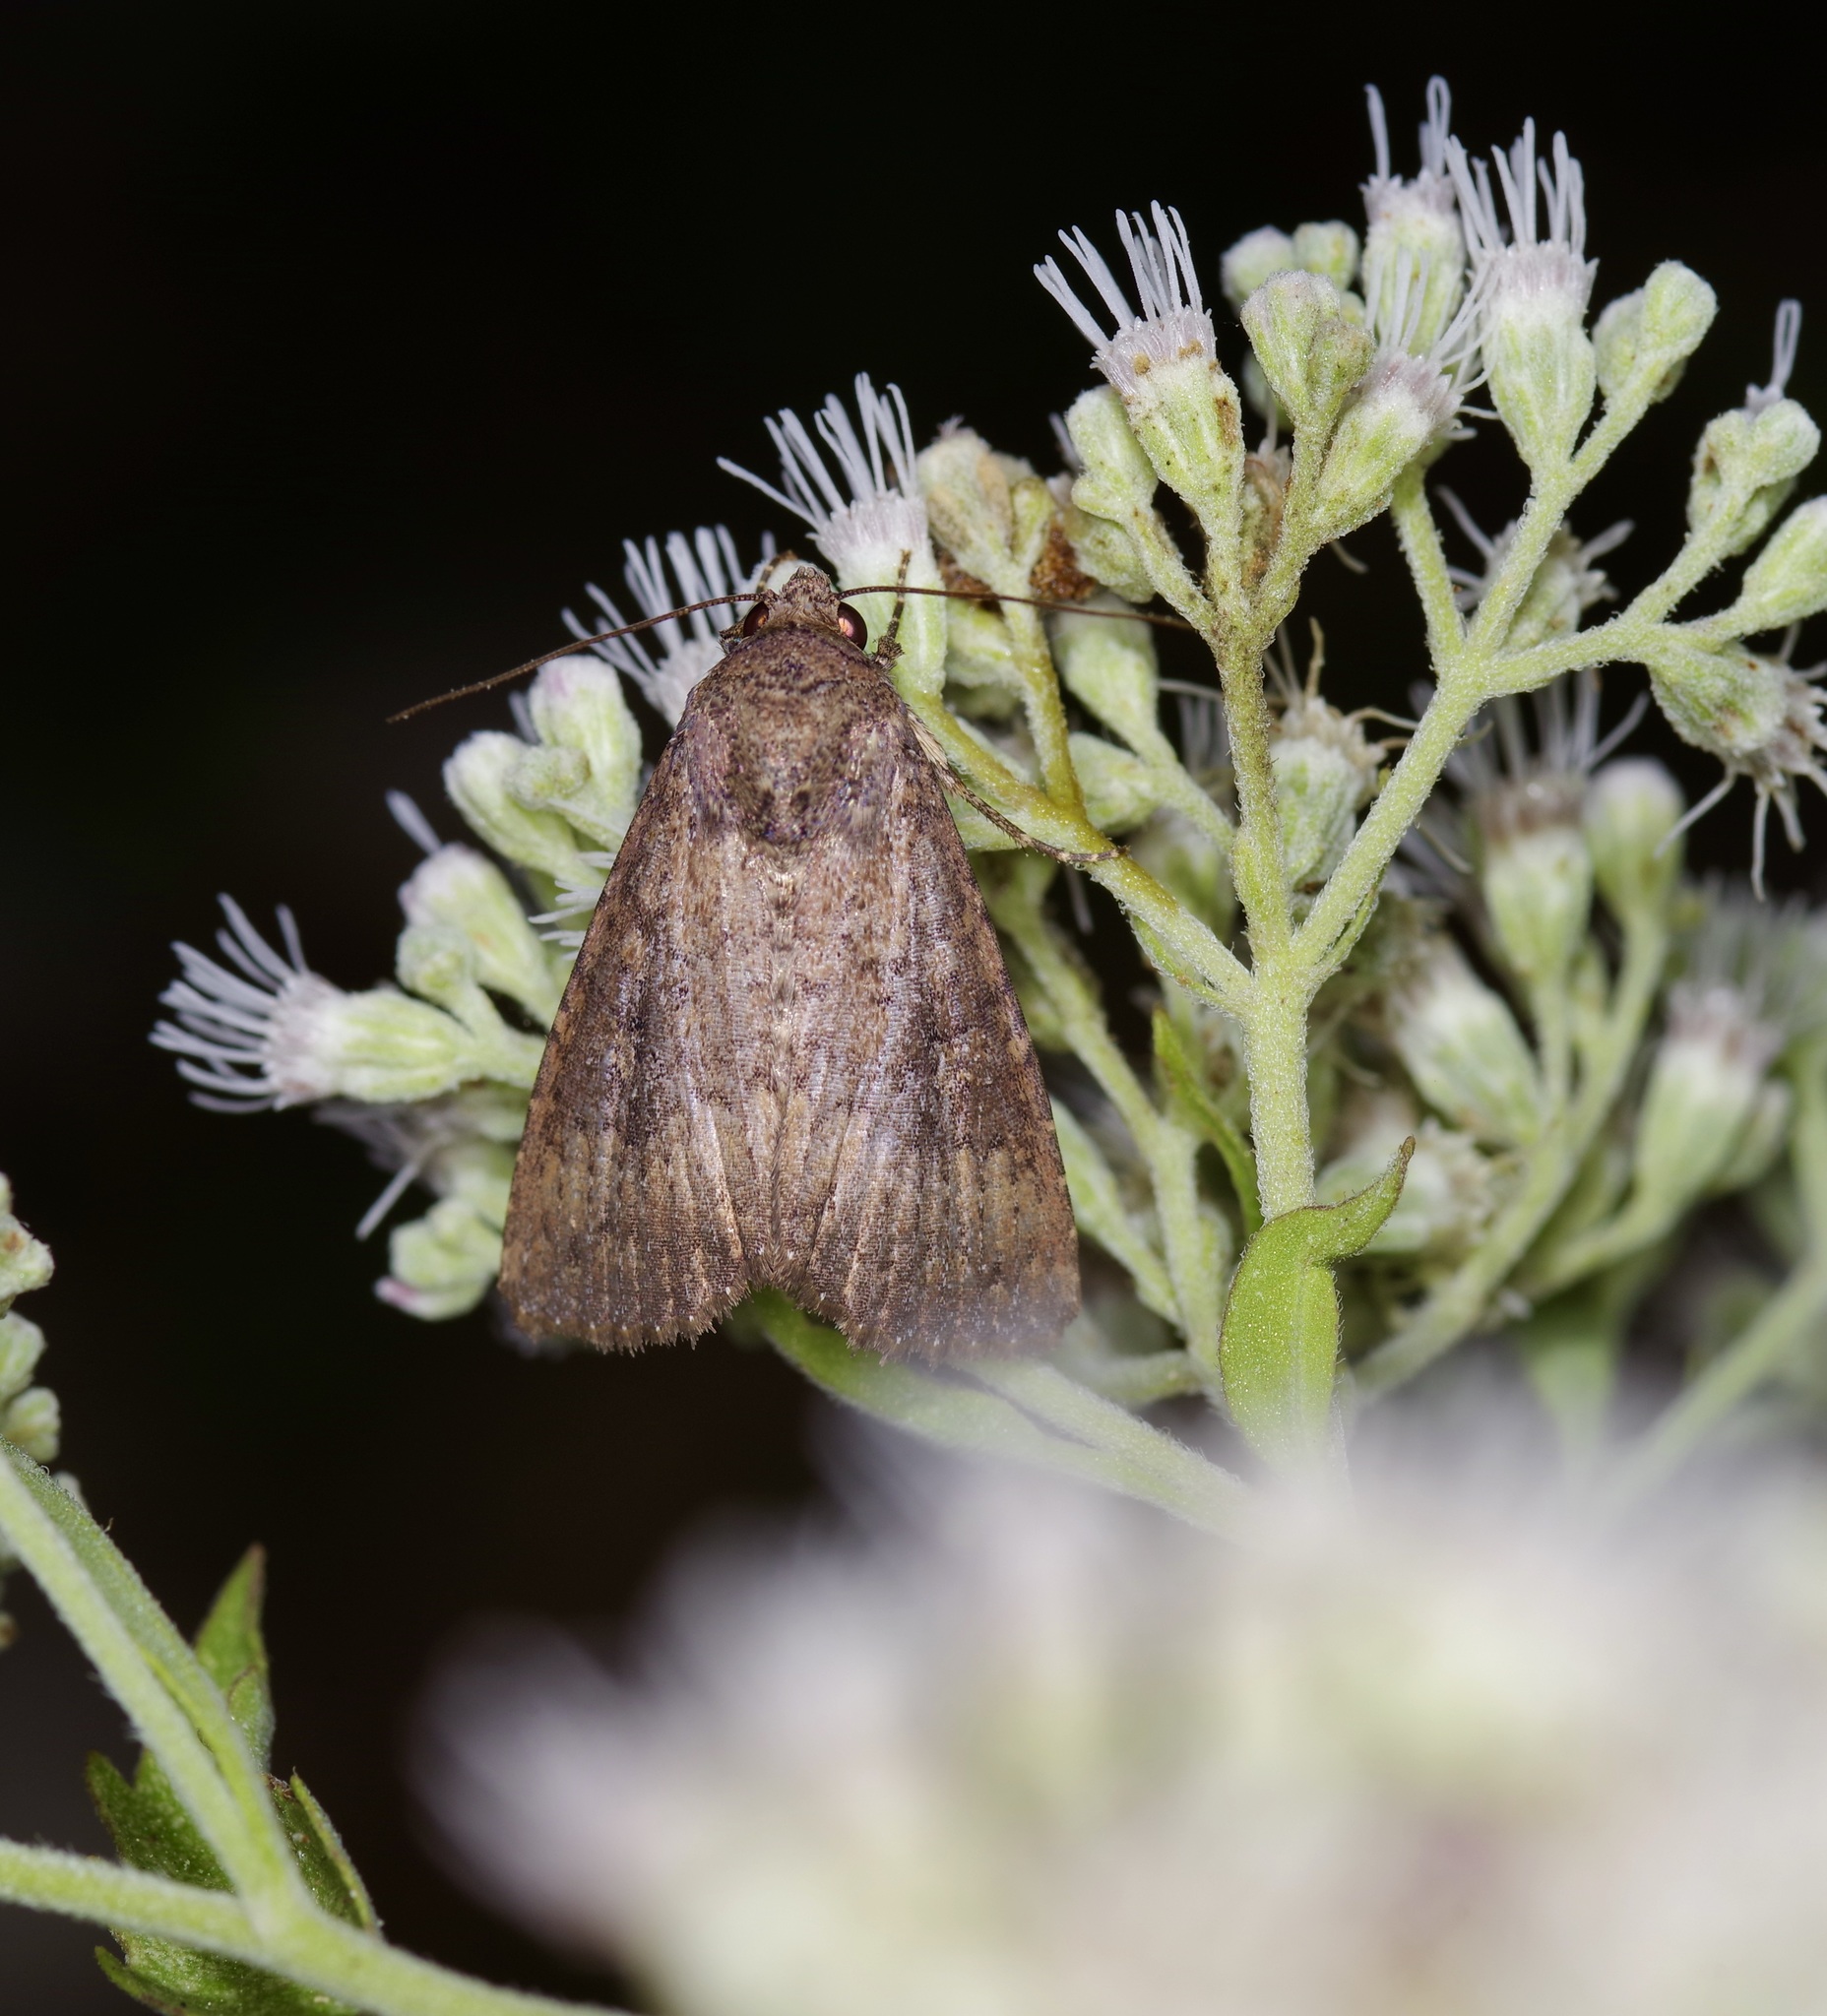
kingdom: Animalia
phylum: Arthropoda
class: Insecta
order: Lepidoptera
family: Noctuidae
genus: Condica
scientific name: Condica sutor
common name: Cobbler moth
